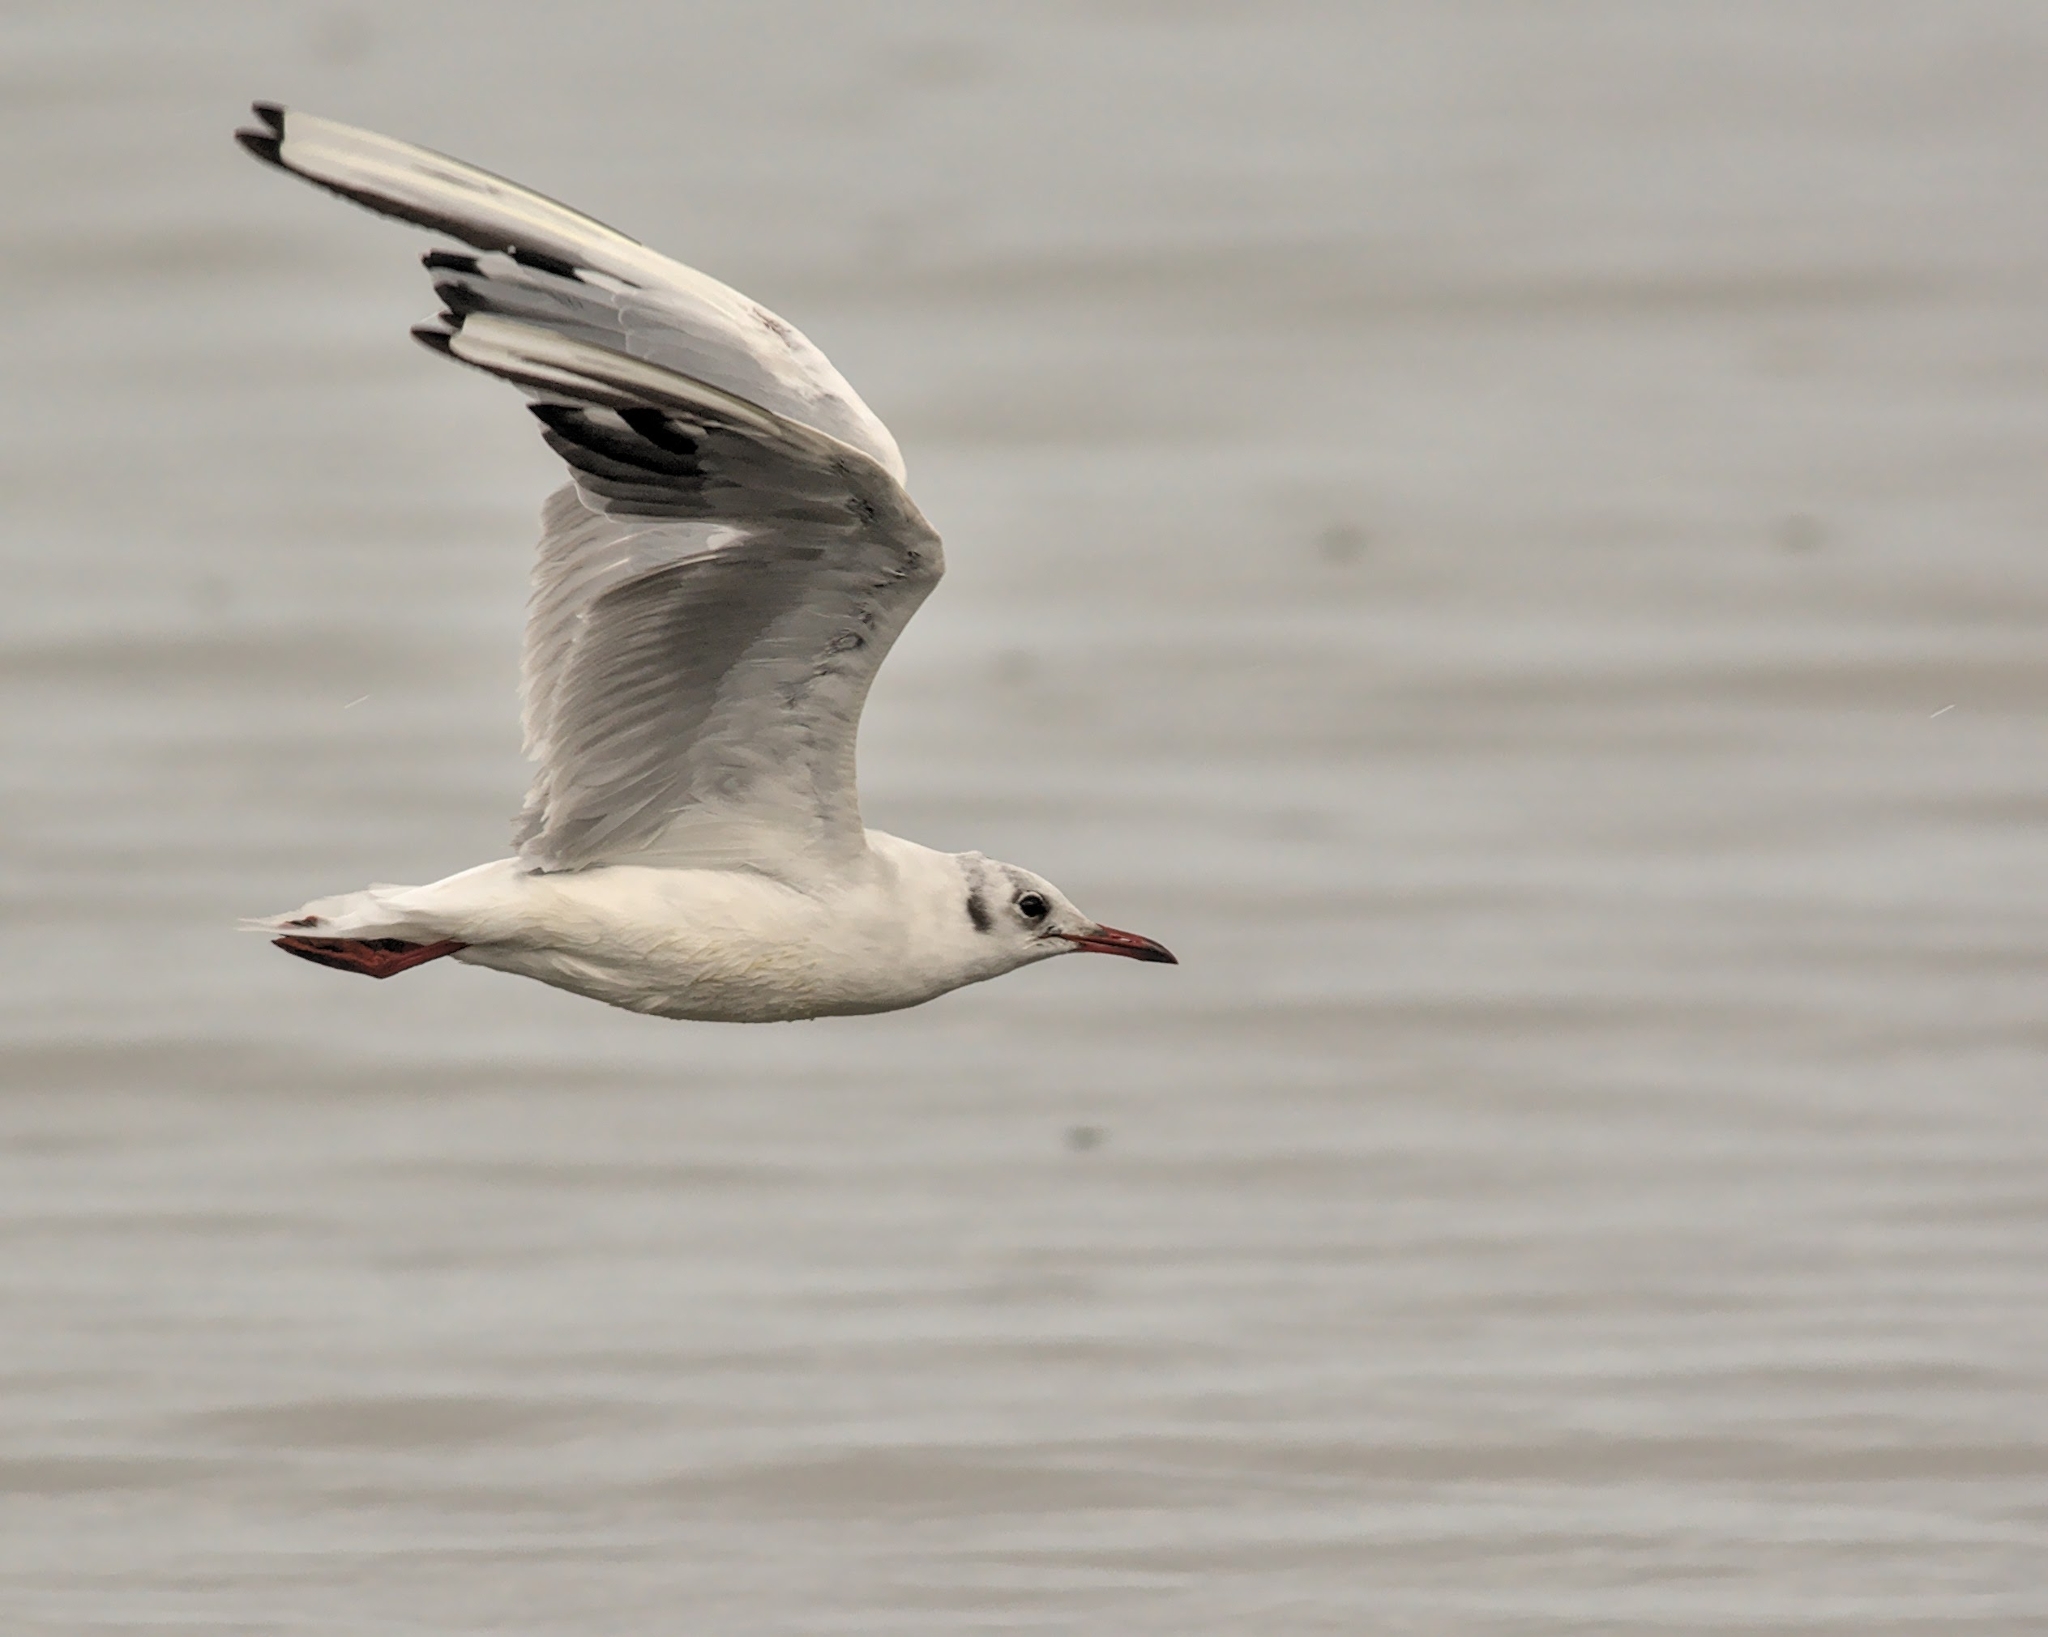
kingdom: Animalia
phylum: Chordata
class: Aves
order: Charadriiformes
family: Laridae
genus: Chroicocephalus
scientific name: Chroicocephalus ridibundus
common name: Black-headed gull
